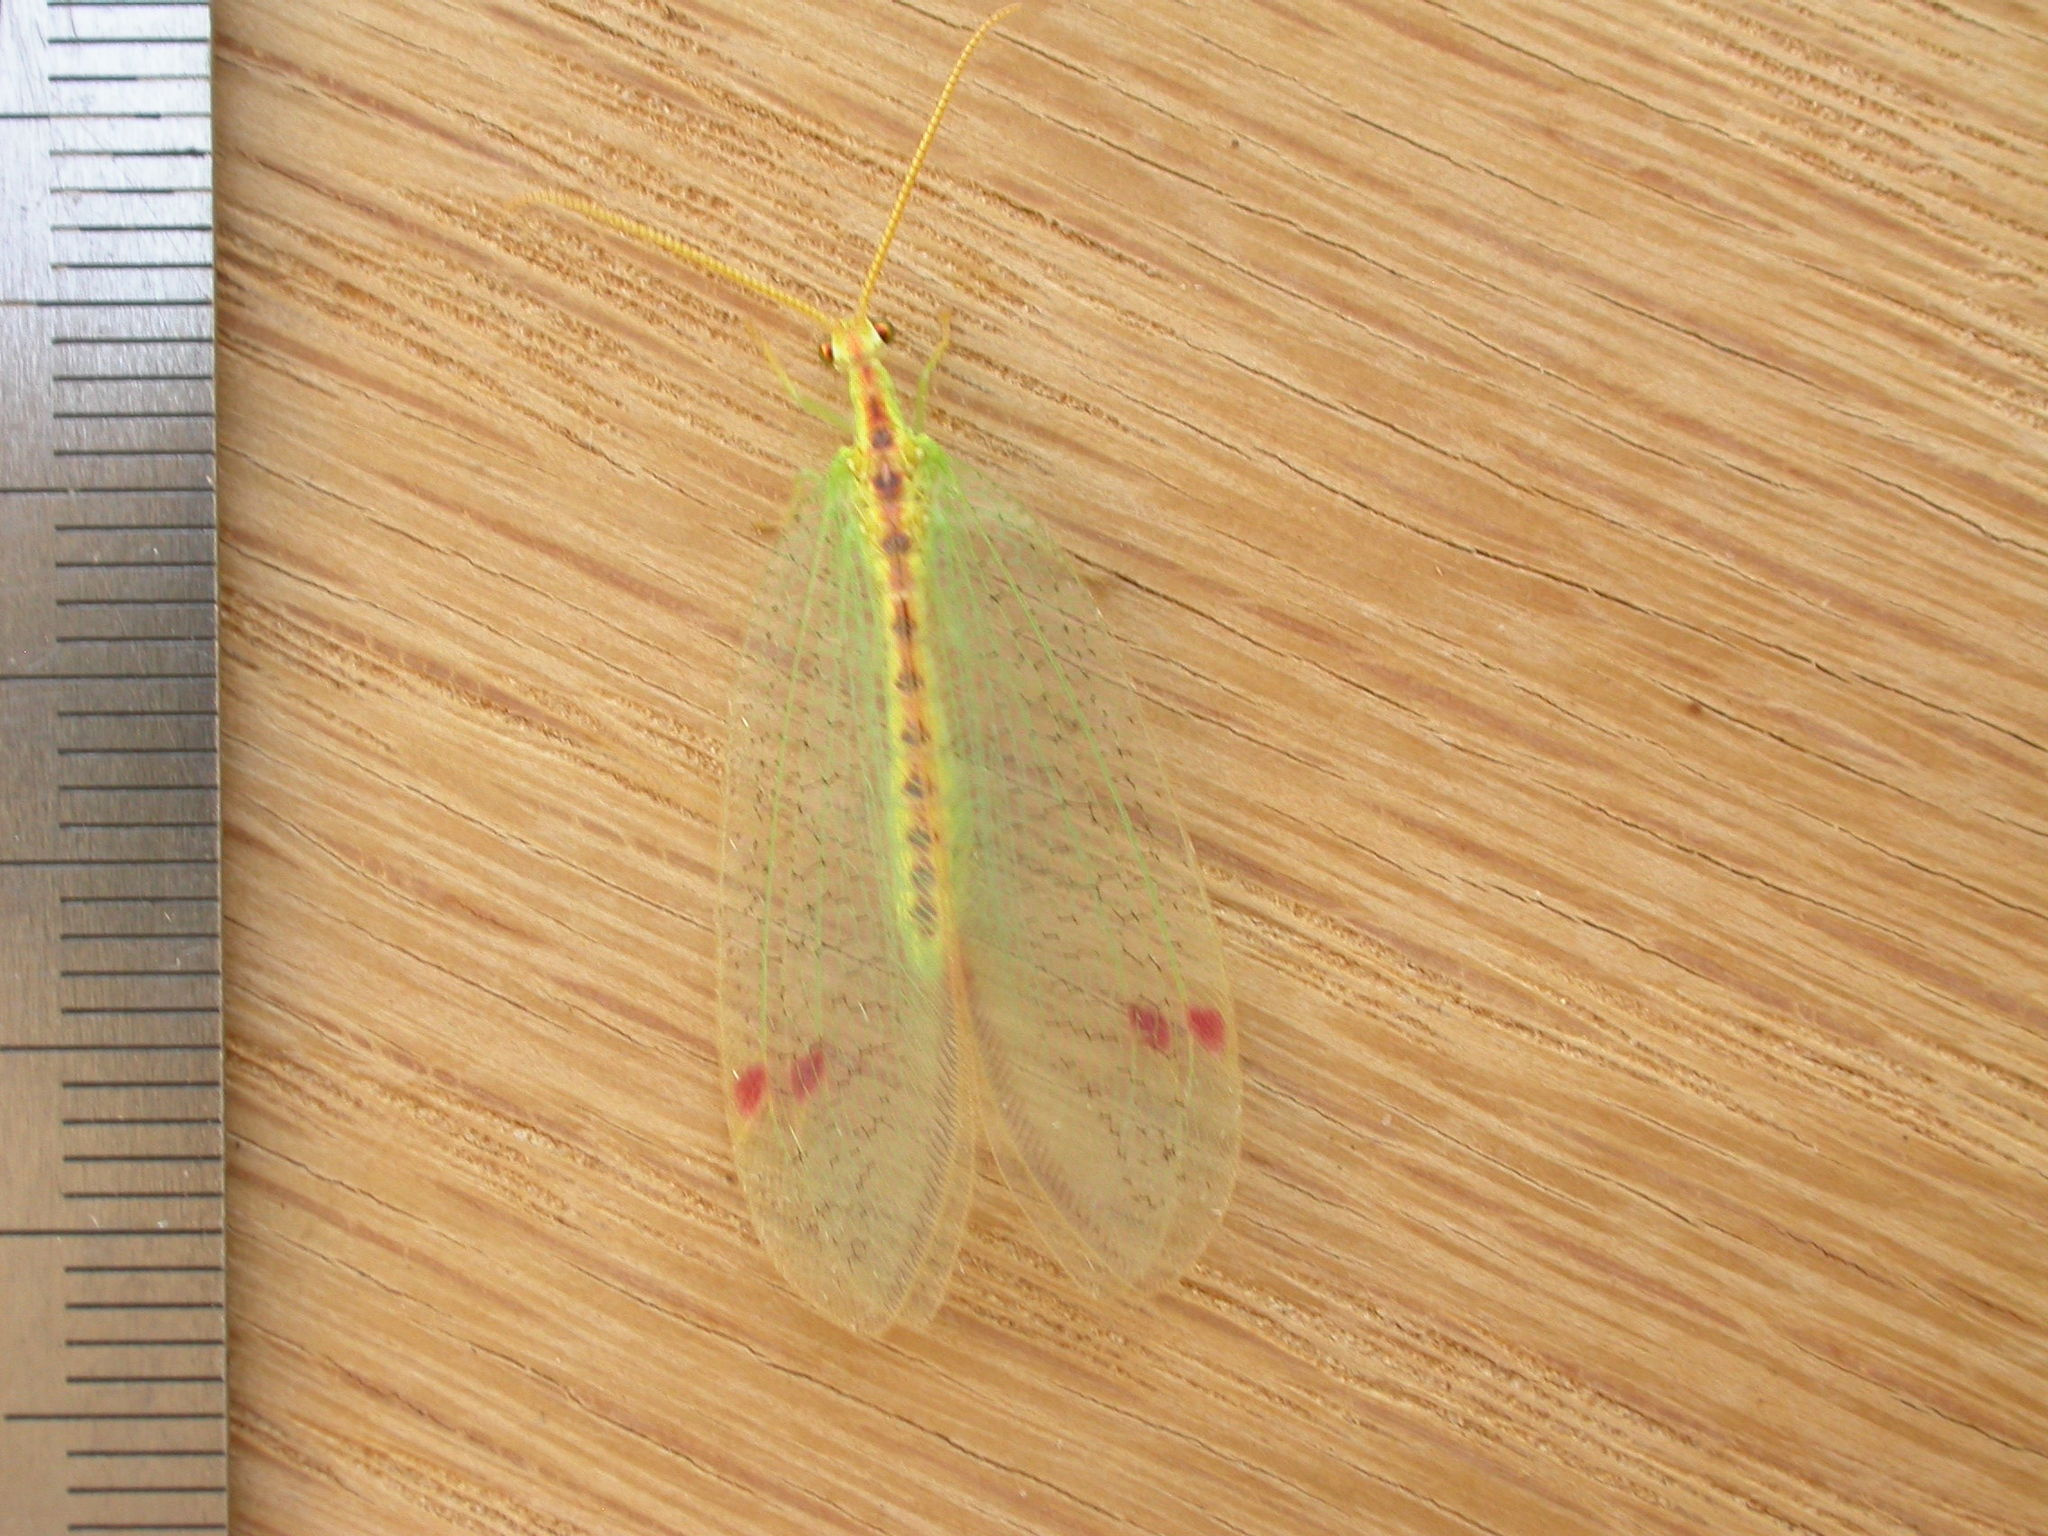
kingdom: Animalia
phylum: Arthropoda
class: Insecta
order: Neuroptera
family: Nymphidae
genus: Norfolius
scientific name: Norfolius howensis
